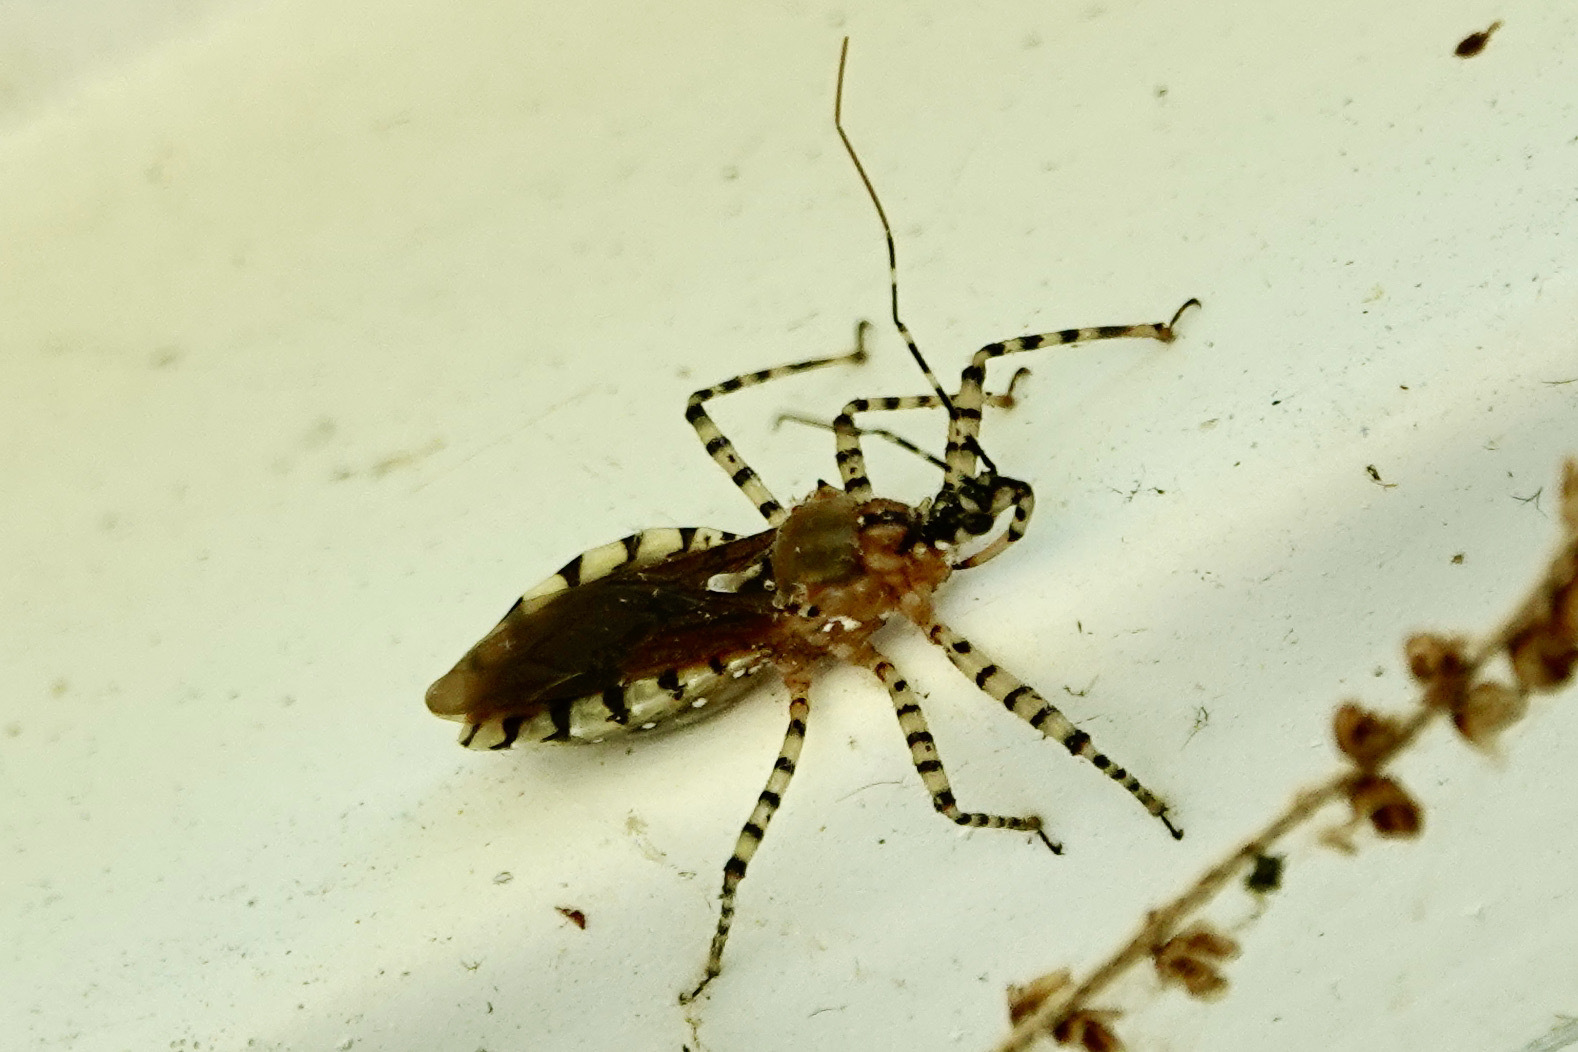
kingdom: Animalia
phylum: Arthropoda
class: Insecta
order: Hemiptera
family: Reduviidae
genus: Pselliopus
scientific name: Pselliopus cinctus
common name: Ringed assassin bug
